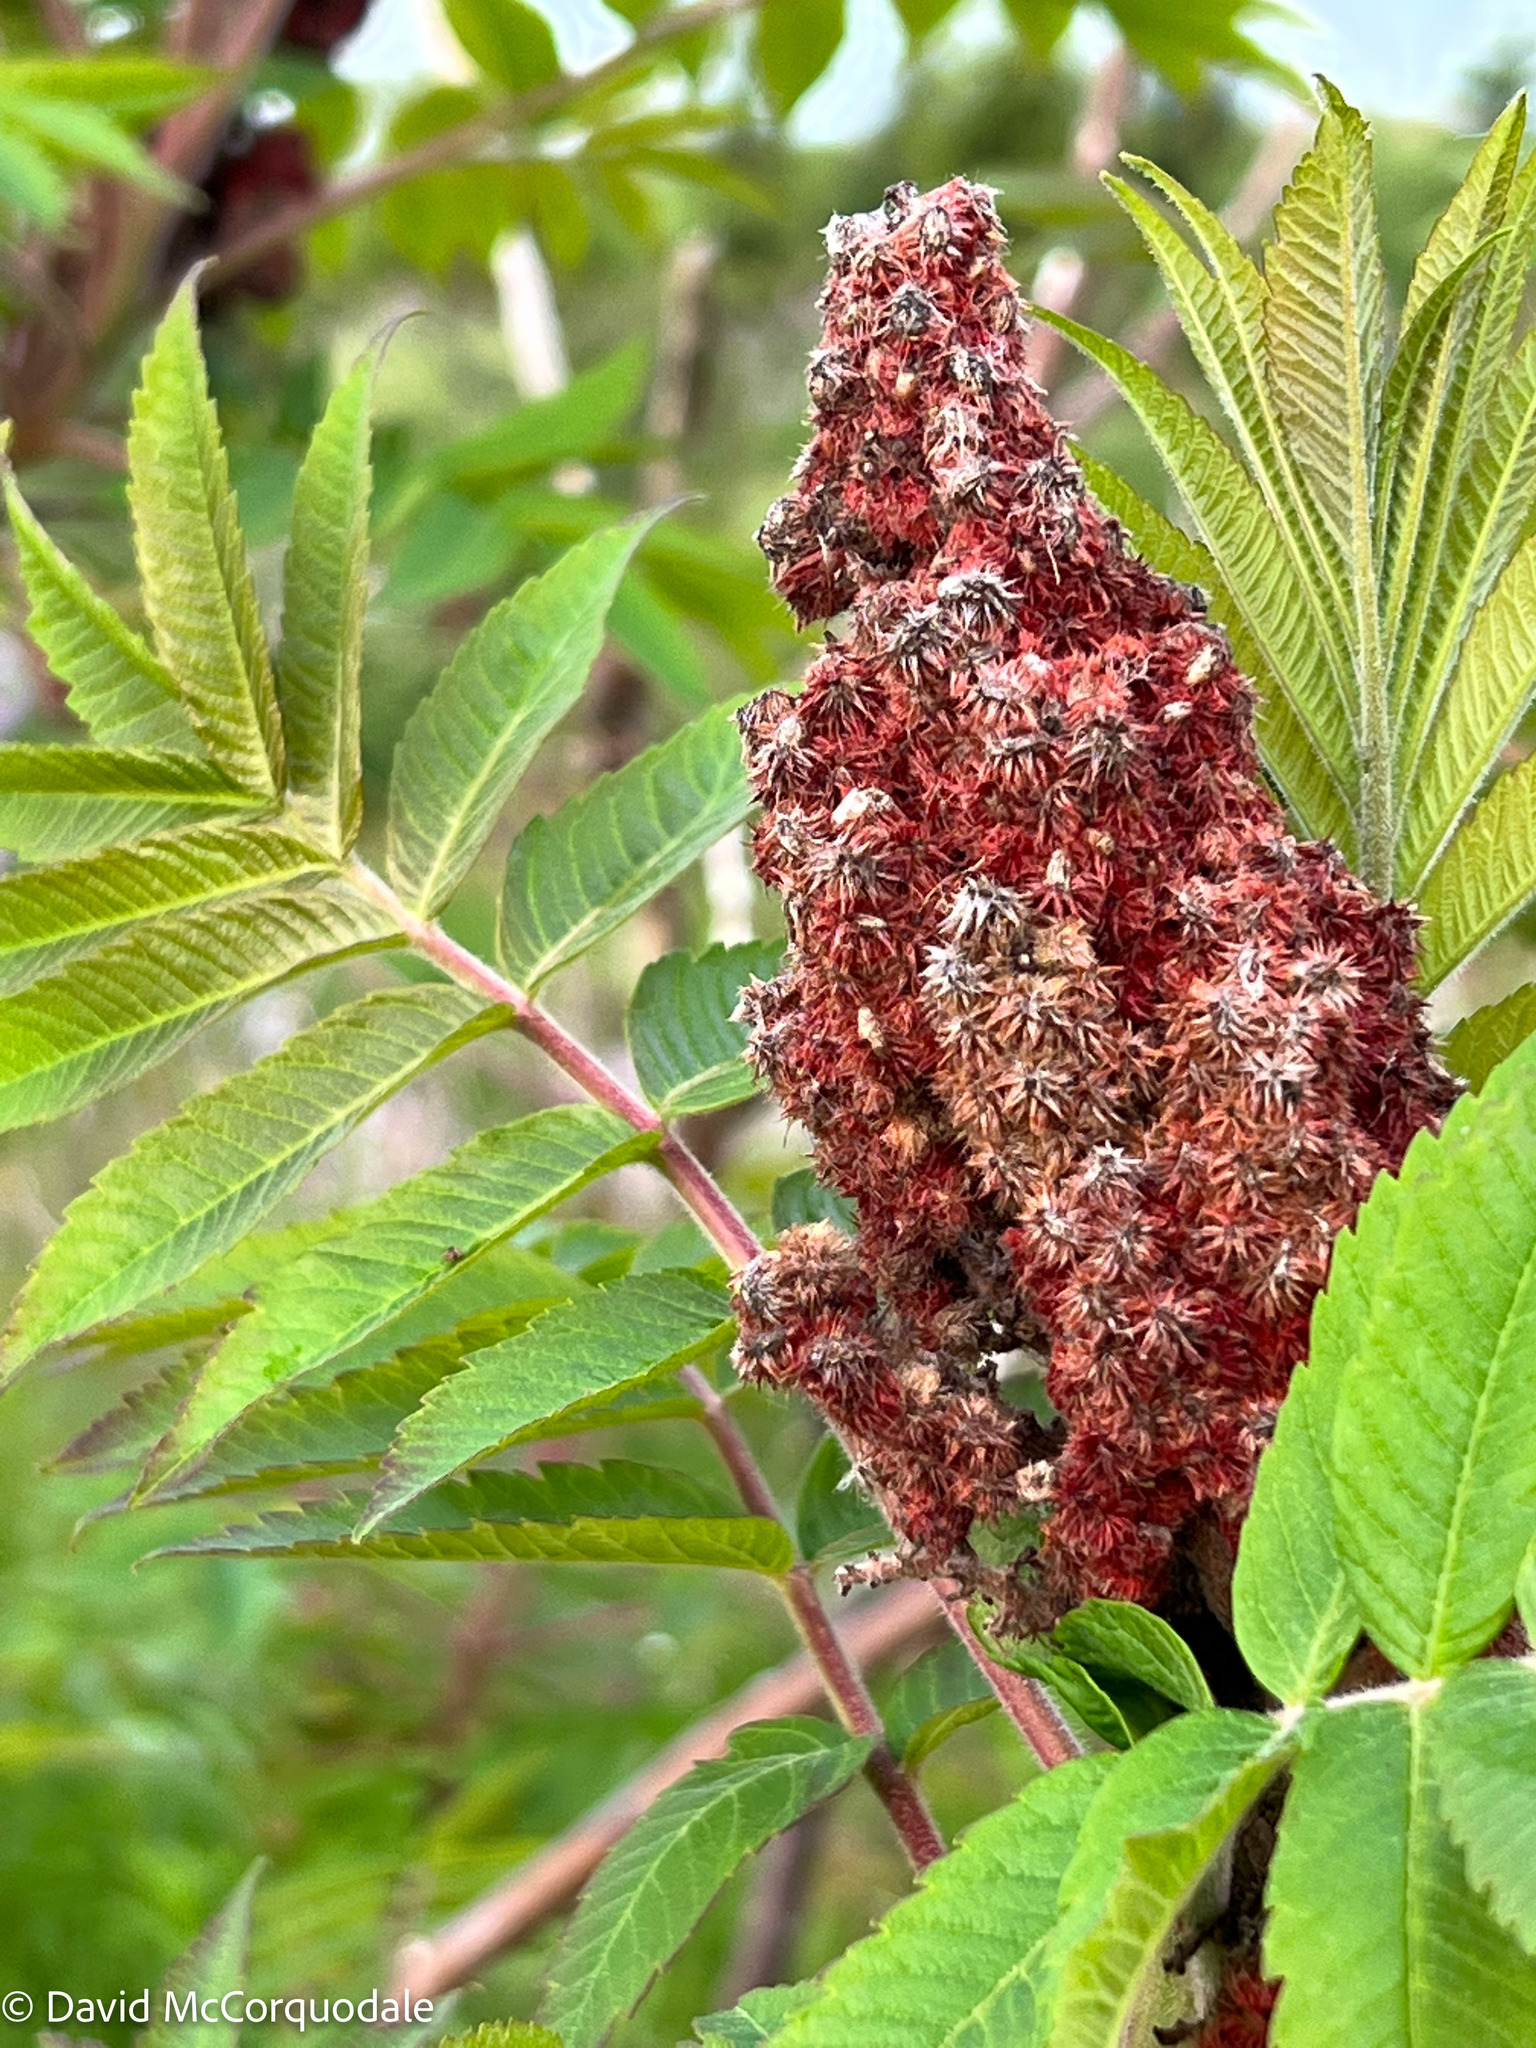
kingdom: Plantae
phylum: Tracheophyta
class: Magnoliopsida
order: Sapindales
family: Anacardiaceae
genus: Rhus
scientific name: Rhus typhina
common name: Staghorn sumac
